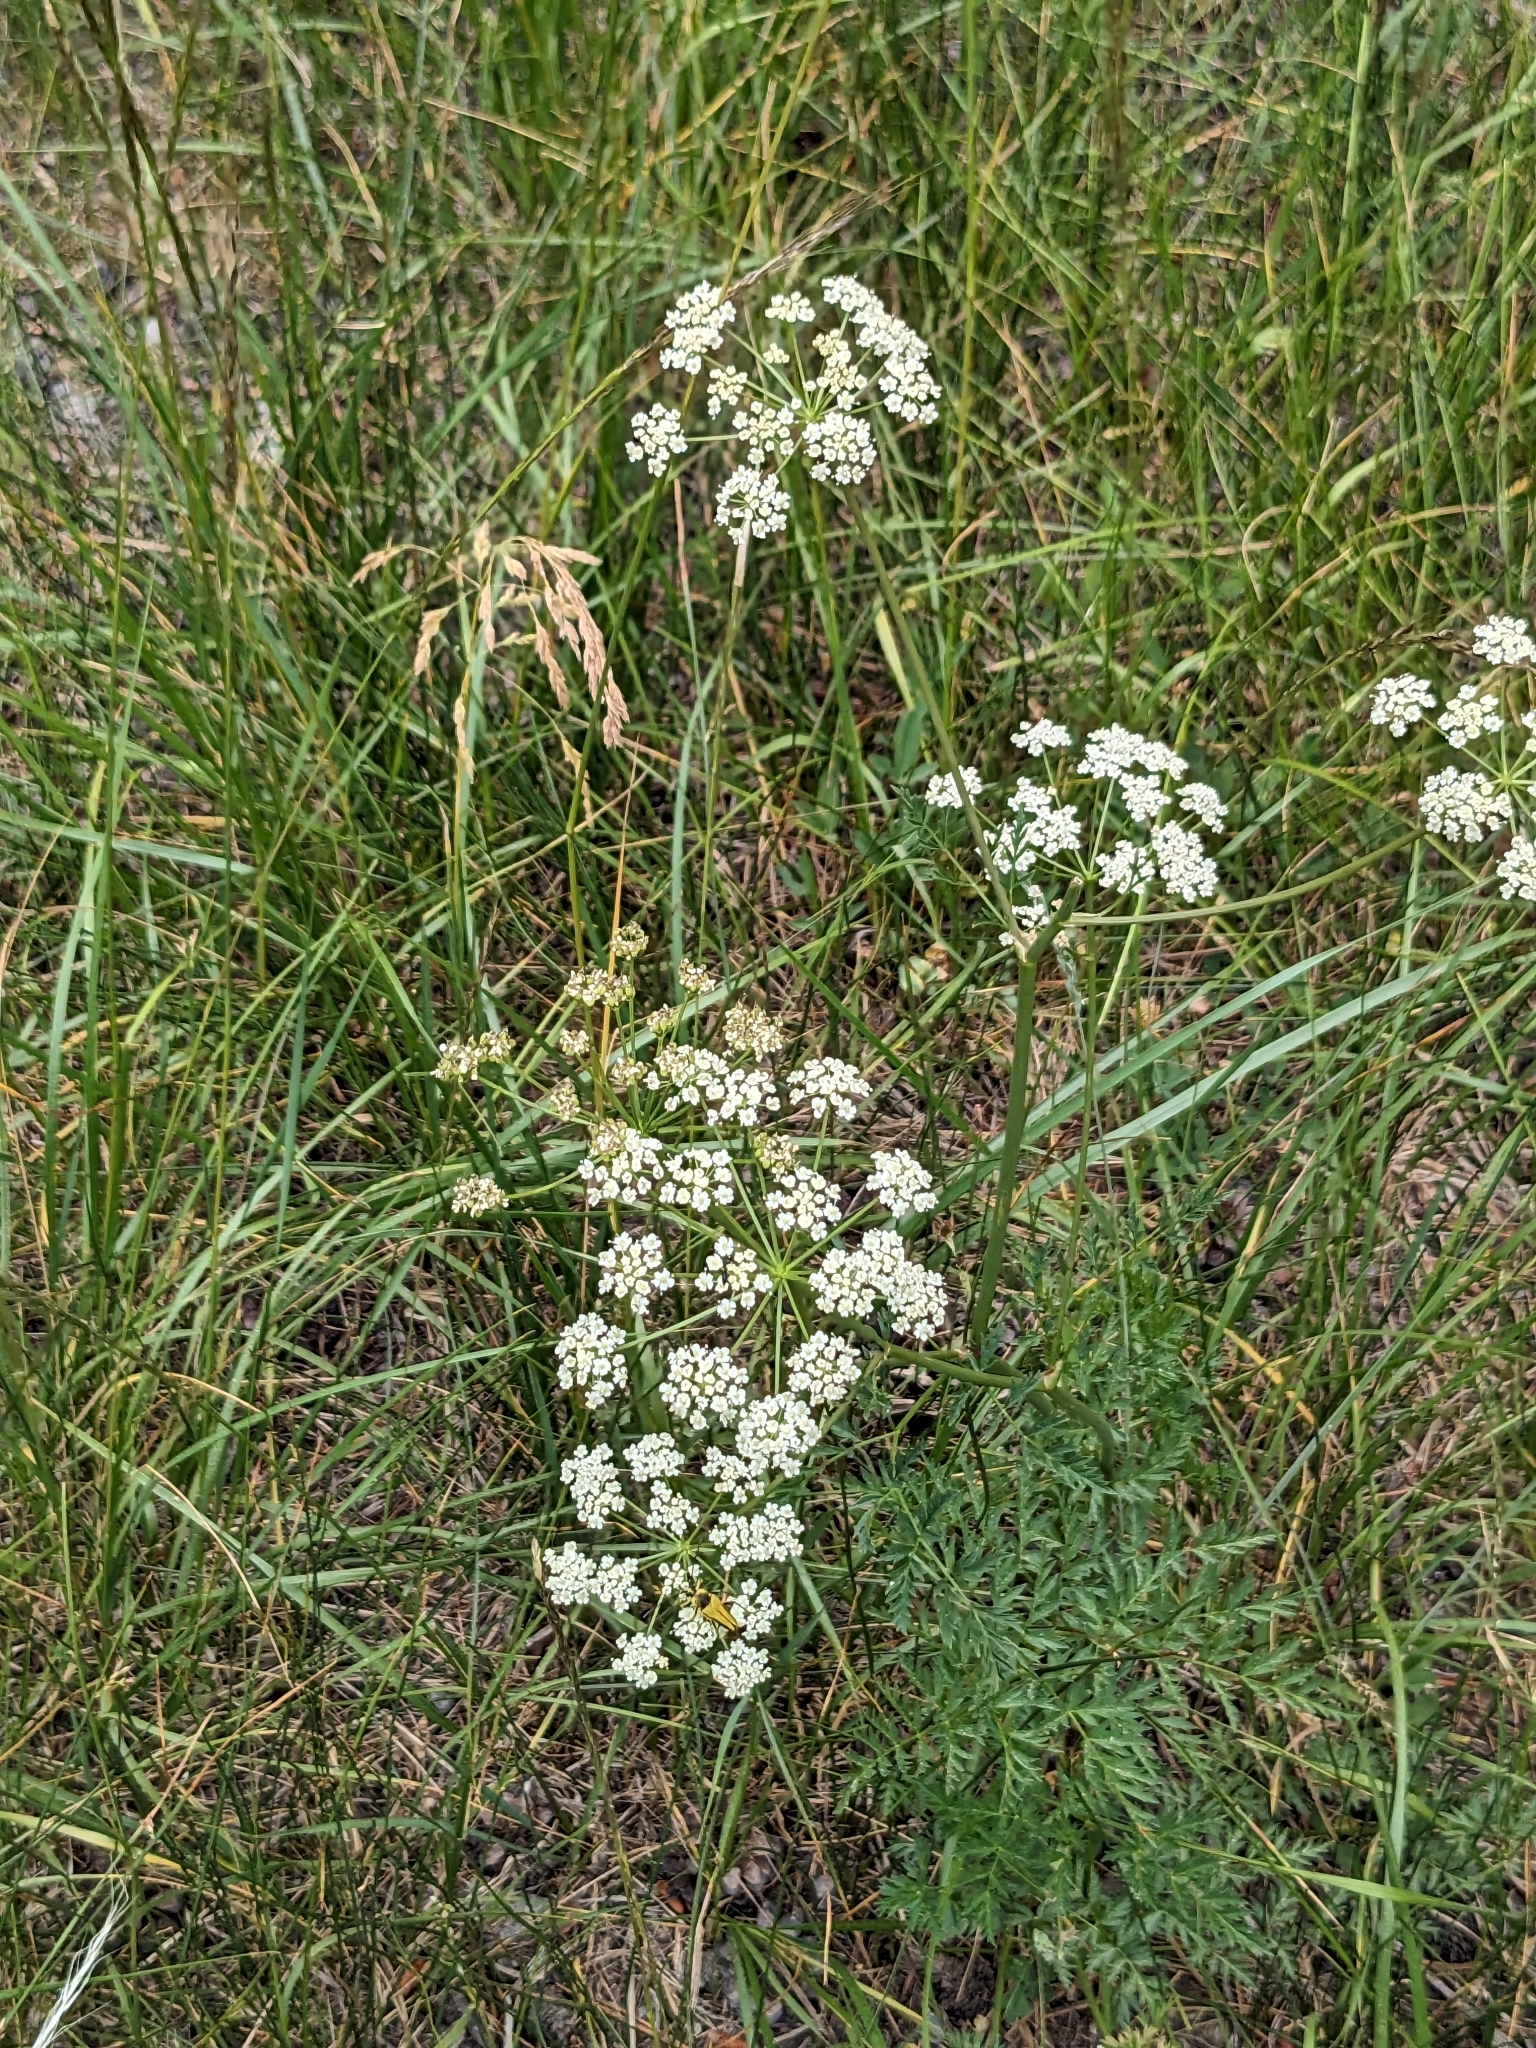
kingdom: Plantae
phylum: Tracheophyta
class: Magnoliopsida
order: Apiales
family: Apiaceae
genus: Ligusticum
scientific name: Ligusticum grayi
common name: Gray's licorice-root
